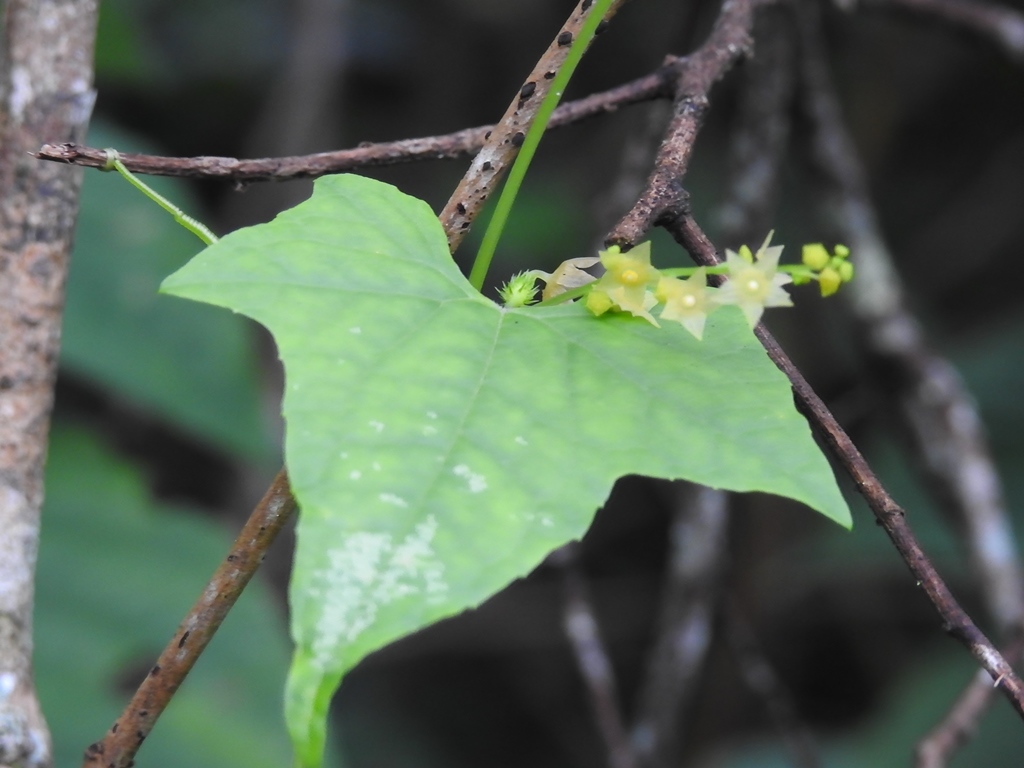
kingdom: Plantae
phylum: Tracheophyta
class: Magnoliopsida
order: Cucurbitales
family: Cucurbitaceae
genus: Sicyos
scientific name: Sicyos davilae
